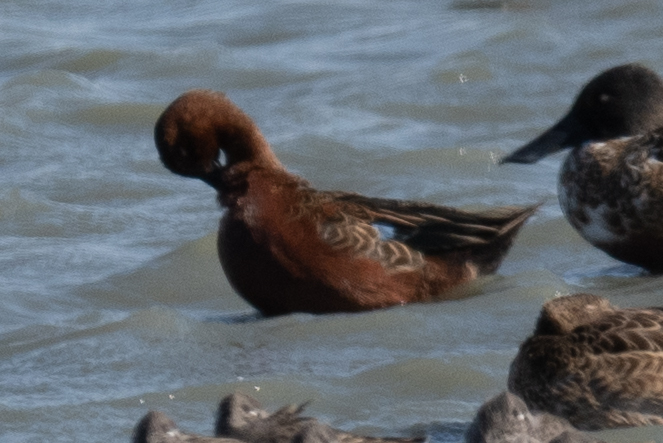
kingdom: Animalia
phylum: Chordata
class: Aves
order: Anseriformes
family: Anatidae
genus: Spatula
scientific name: Spatula cyanoptera
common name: Cinnamon teal
